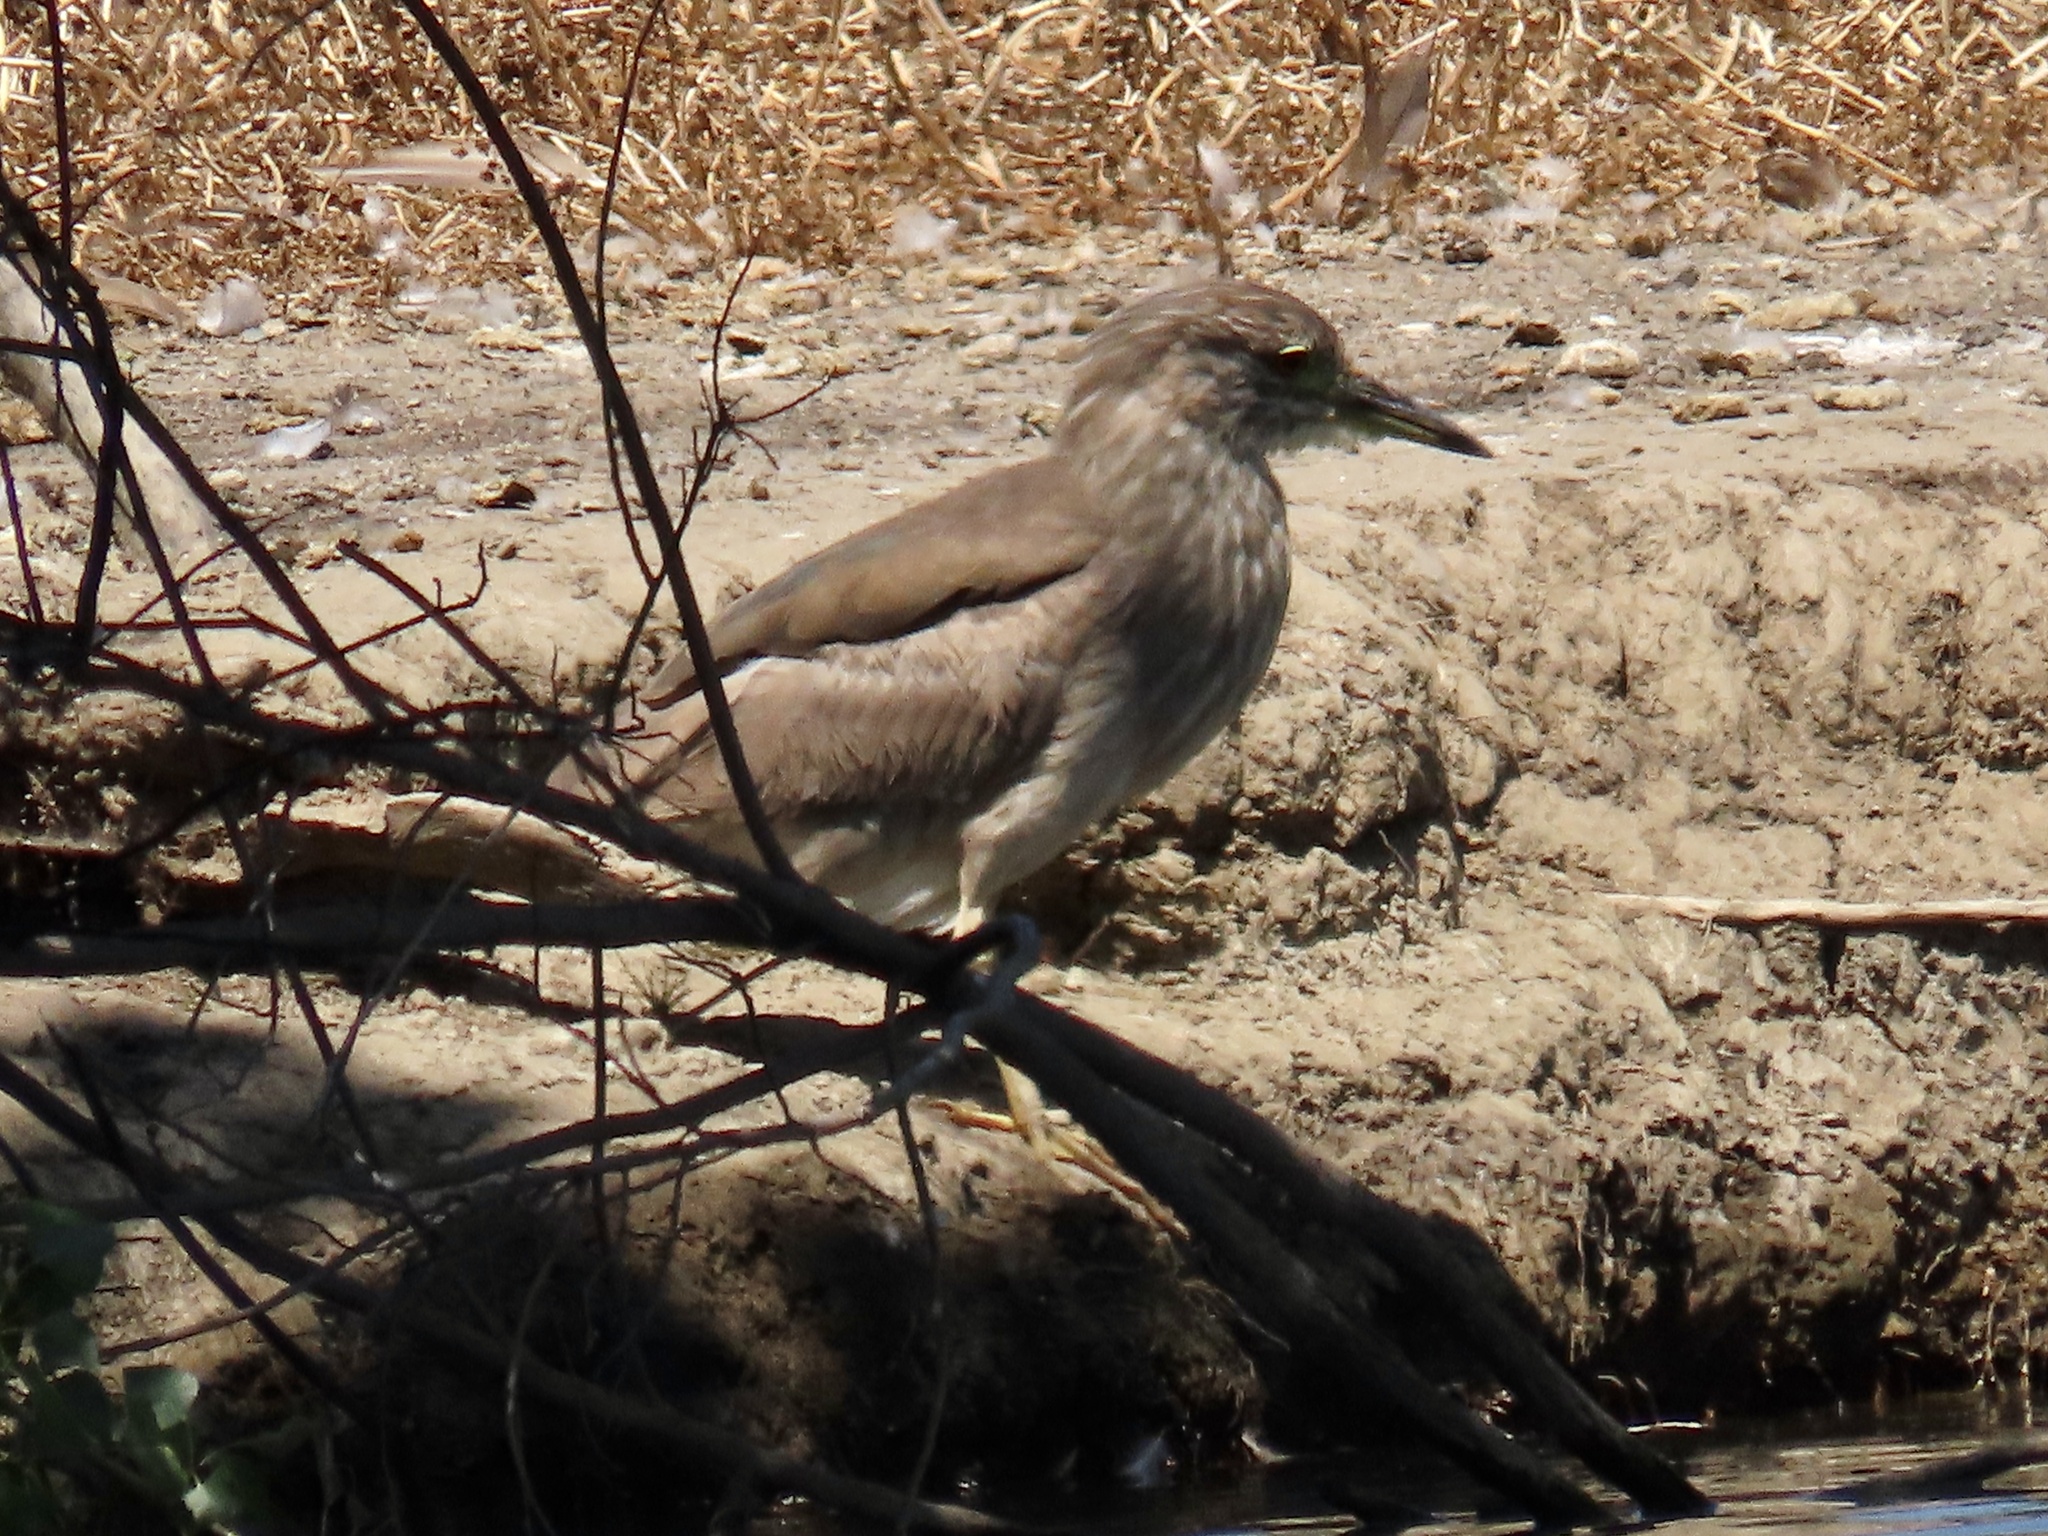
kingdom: Animalia
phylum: Chordata
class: Aves
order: Pelecaniformes
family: Ardeidae
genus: Nycticorax
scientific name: Nycticorax nycticorax
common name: Black-crowned night heron
